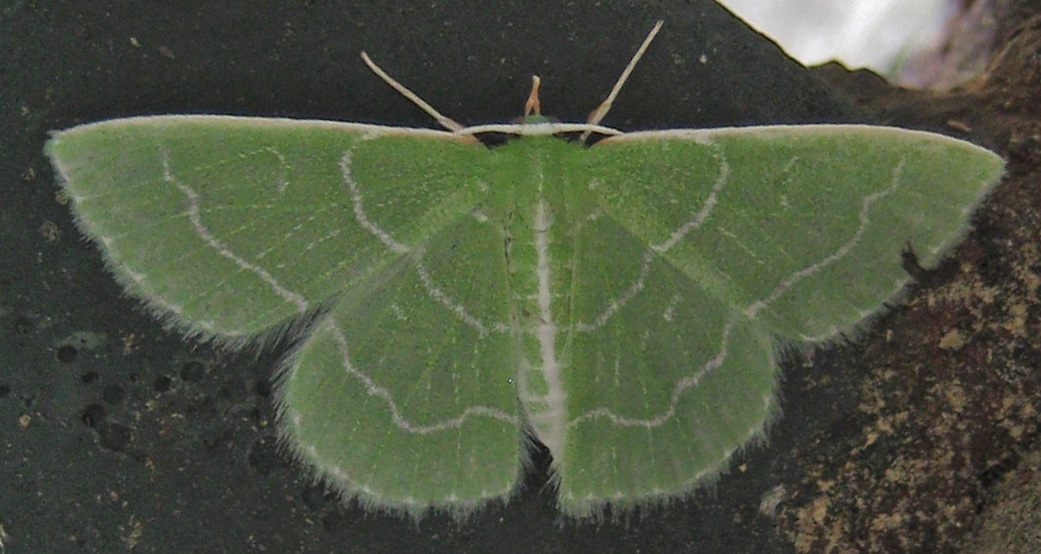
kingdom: Animalia
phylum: Arthropoda
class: Insecta
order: Lepidoptera
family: Geometridae
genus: Synchlora
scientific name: Synchlora aerata
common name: Wavy-lined emerald
